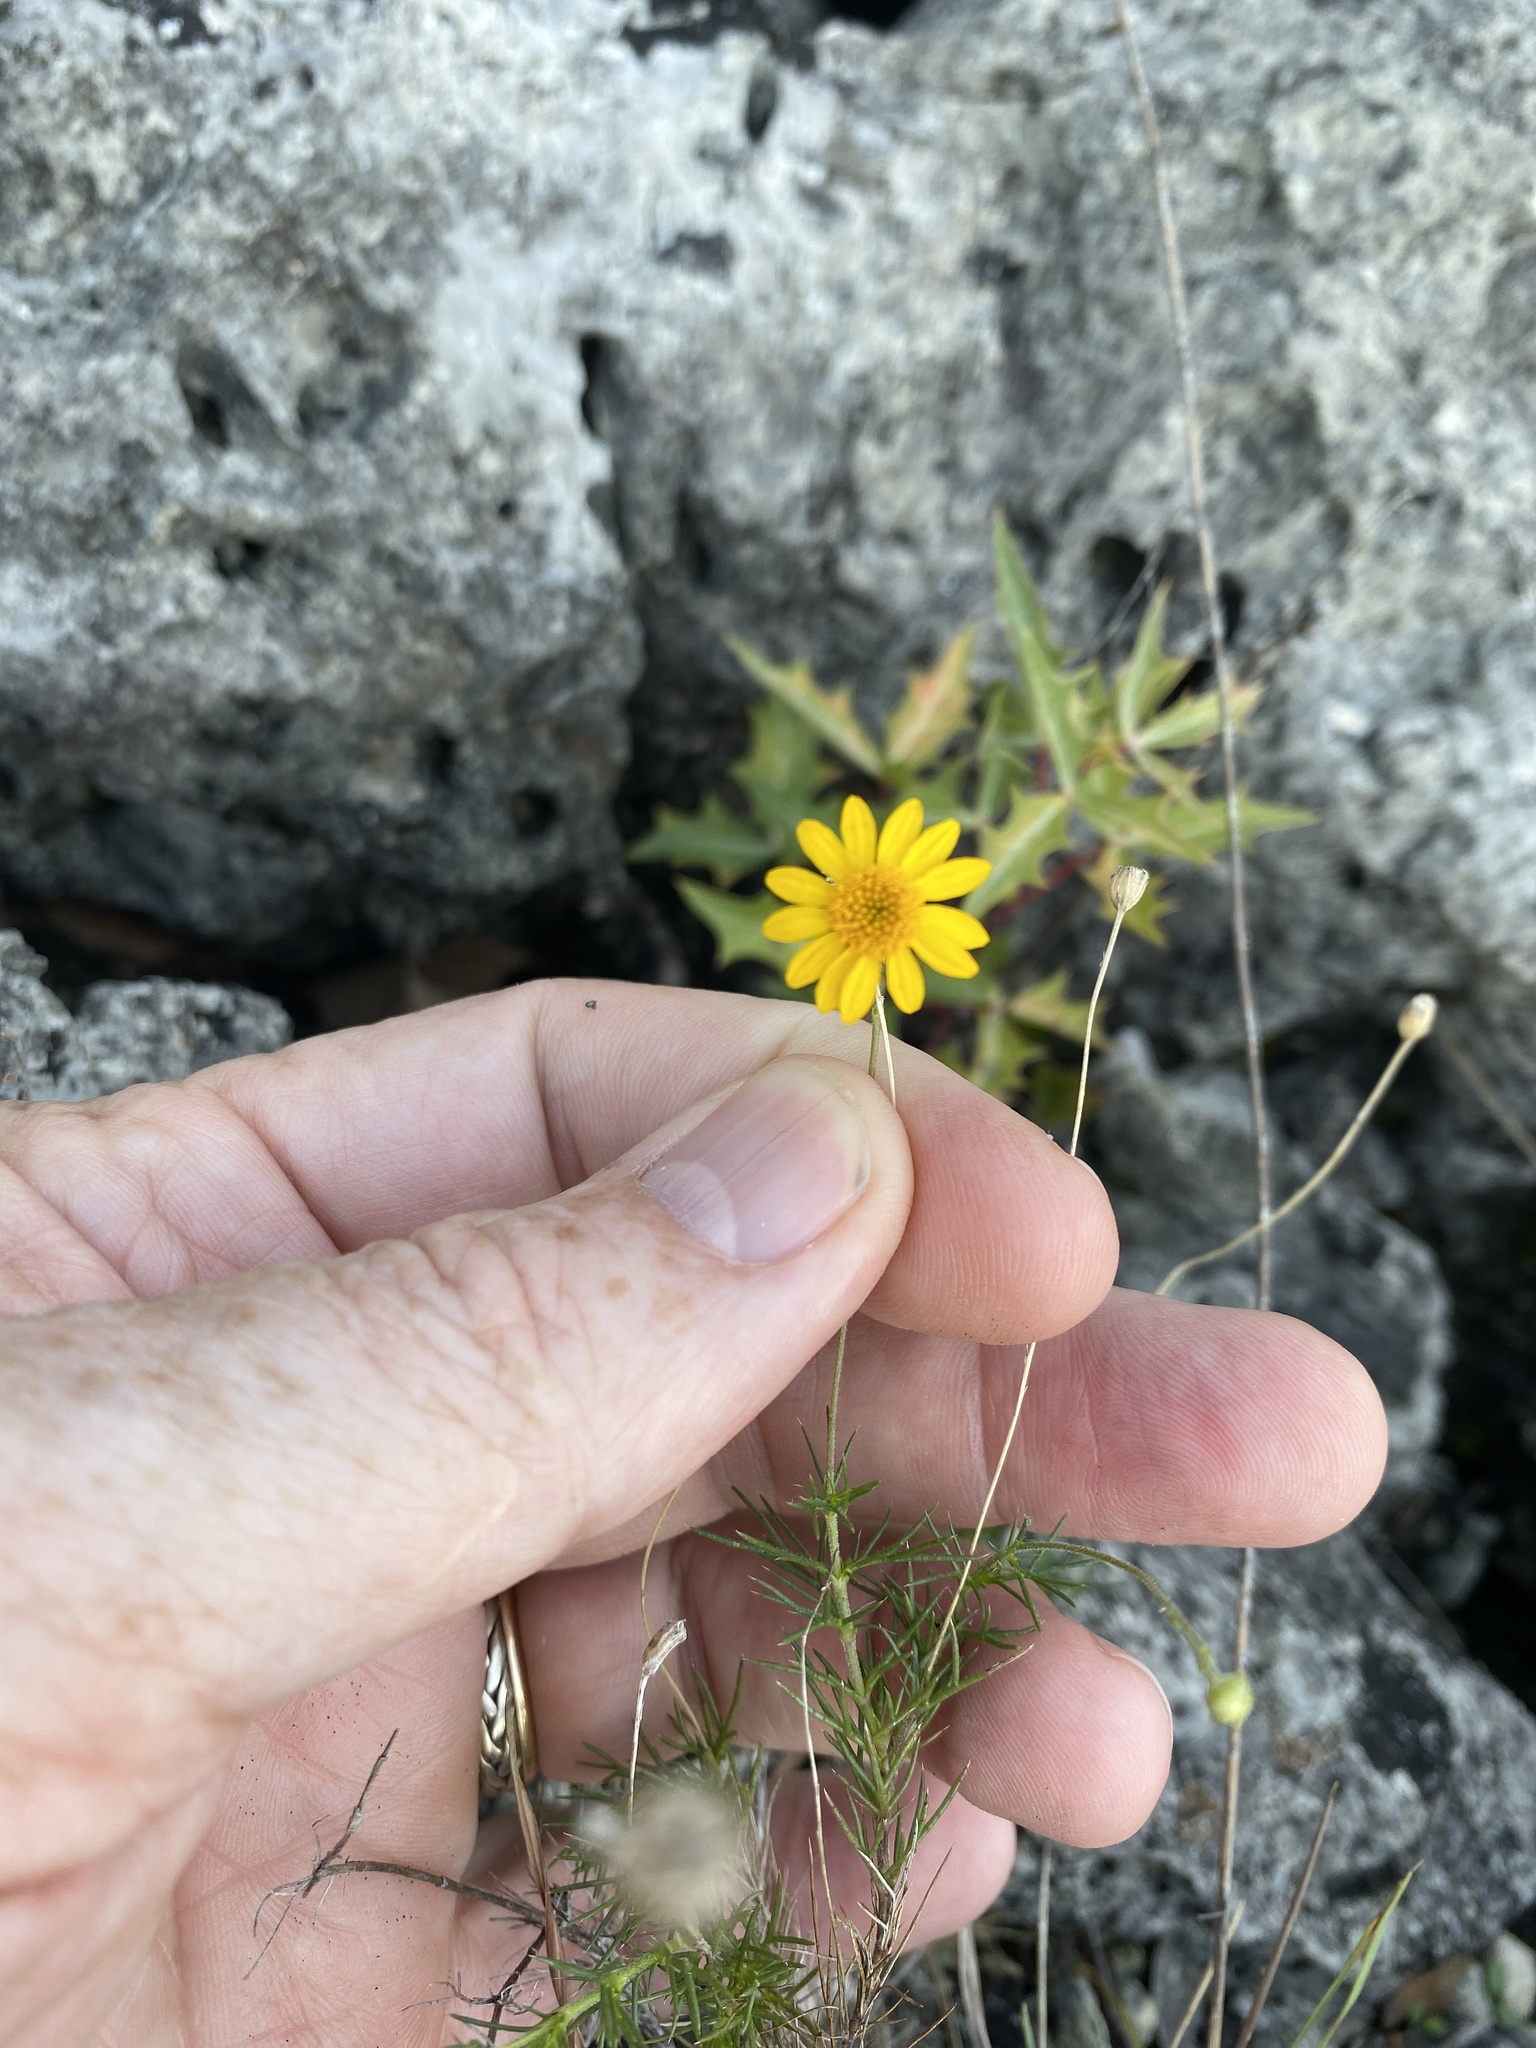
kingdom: Plantae
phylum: Tracheophyta
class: Magnoliopsida
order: Asterales
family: Asteraceae
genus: Thymophylla
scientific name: Thymophylla pentachaeta
